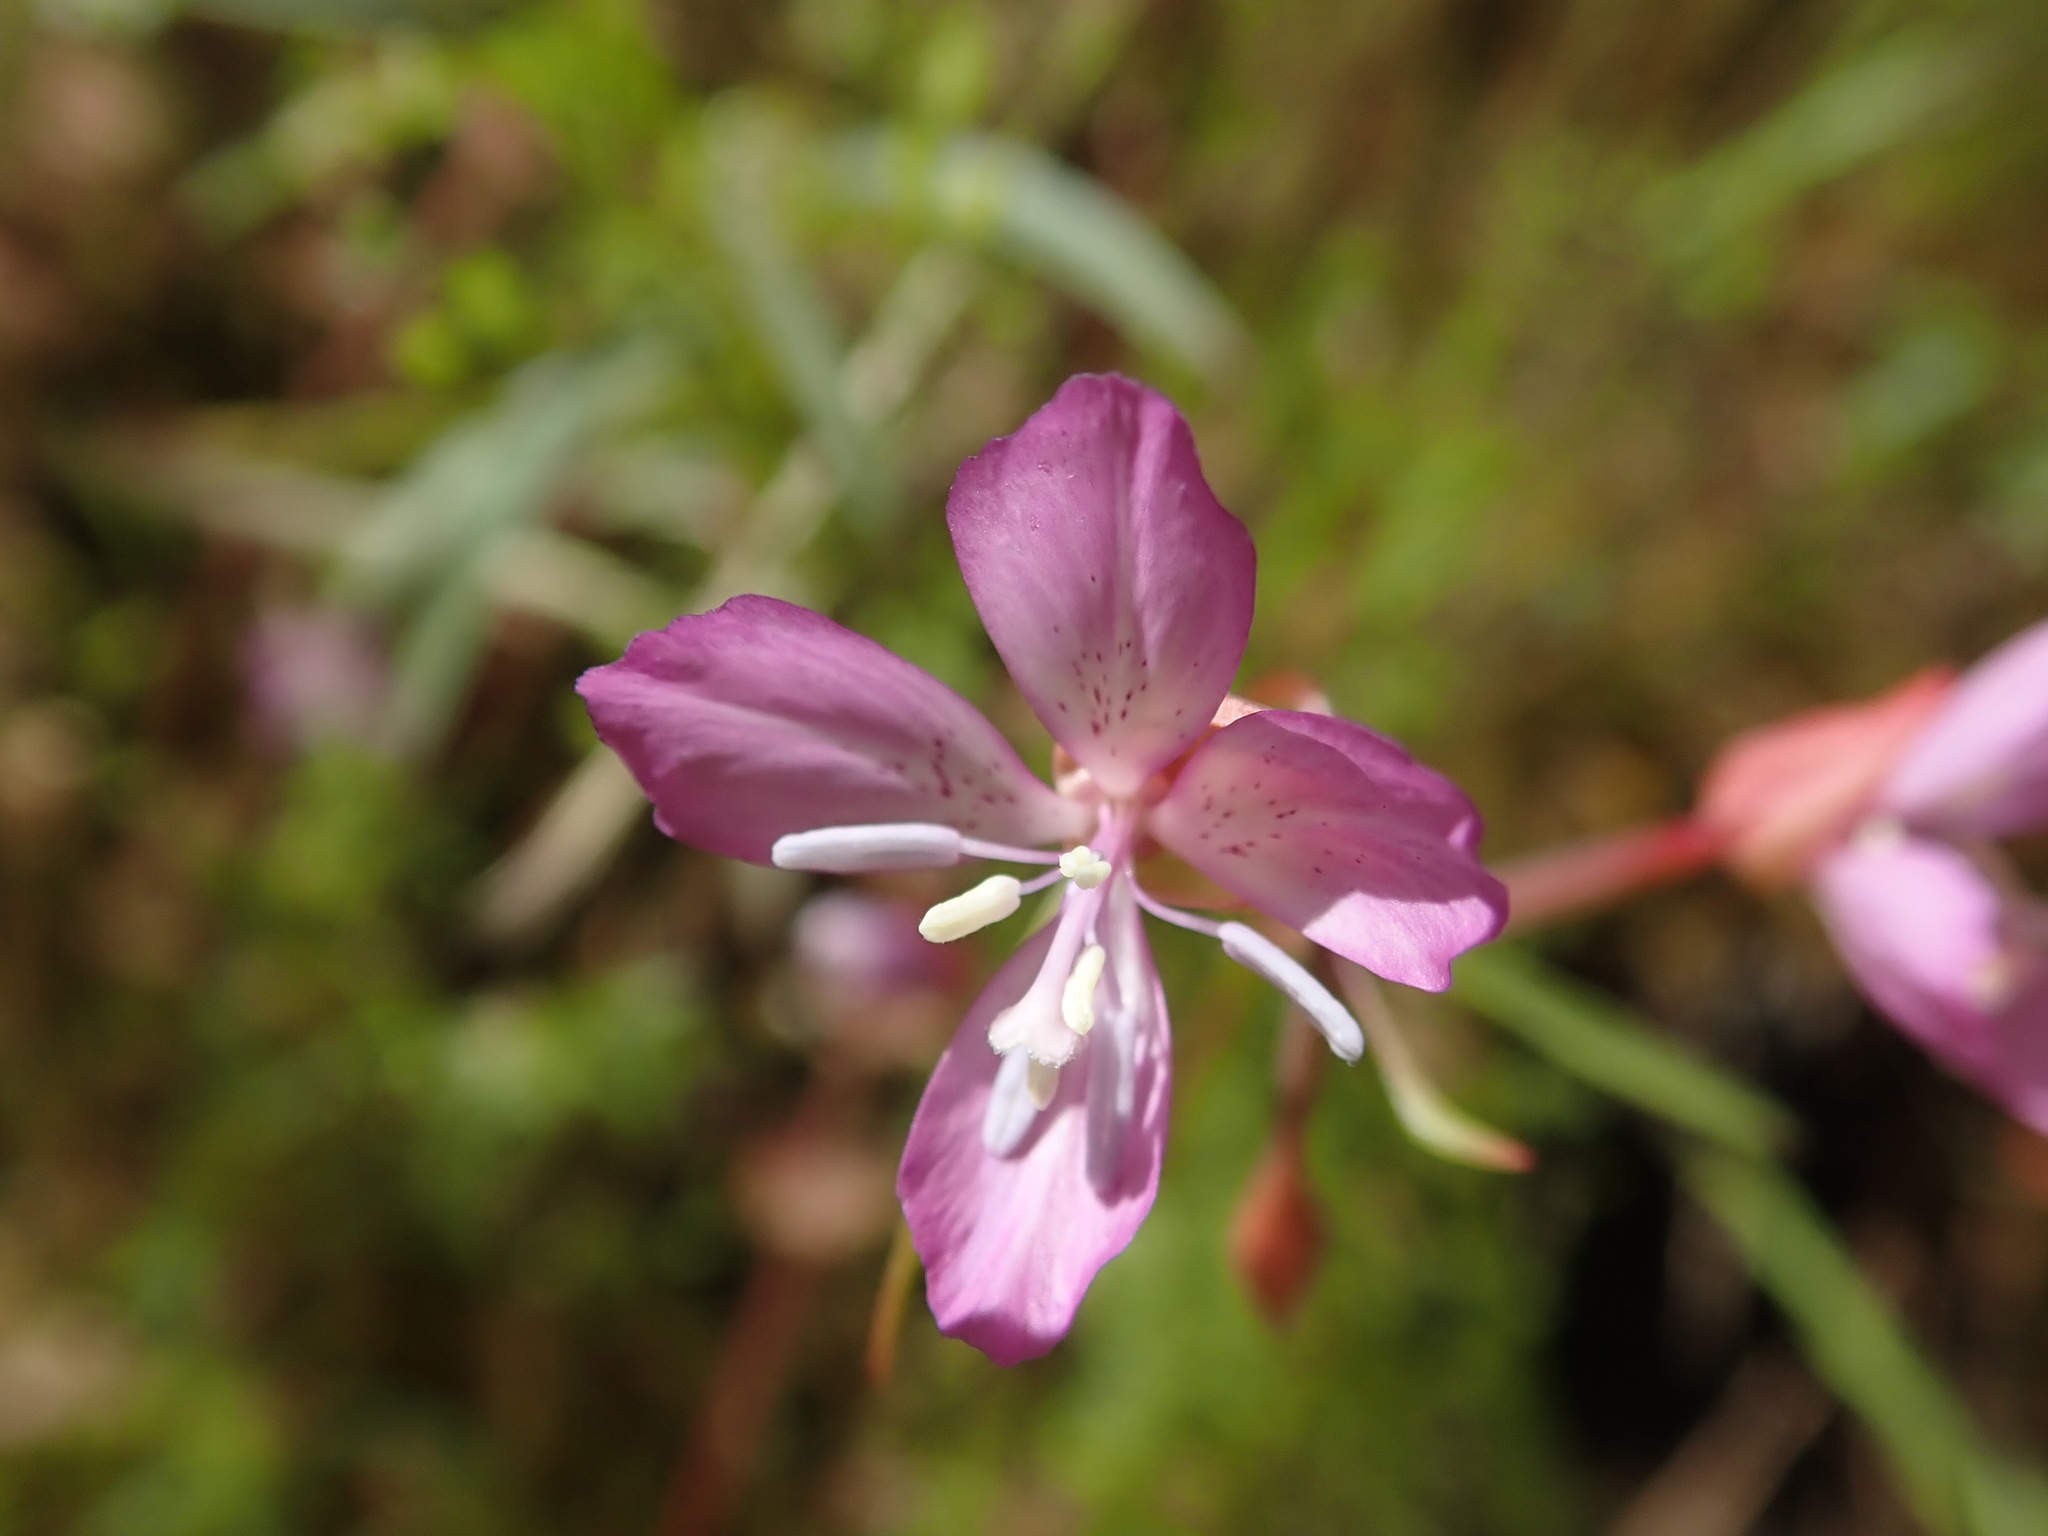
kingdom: Plantae
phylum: Tracheophyta
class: Magnoliopsida
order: Myrtales
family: Onagraceae
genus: Clarkia
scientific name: Clarkia modesta
